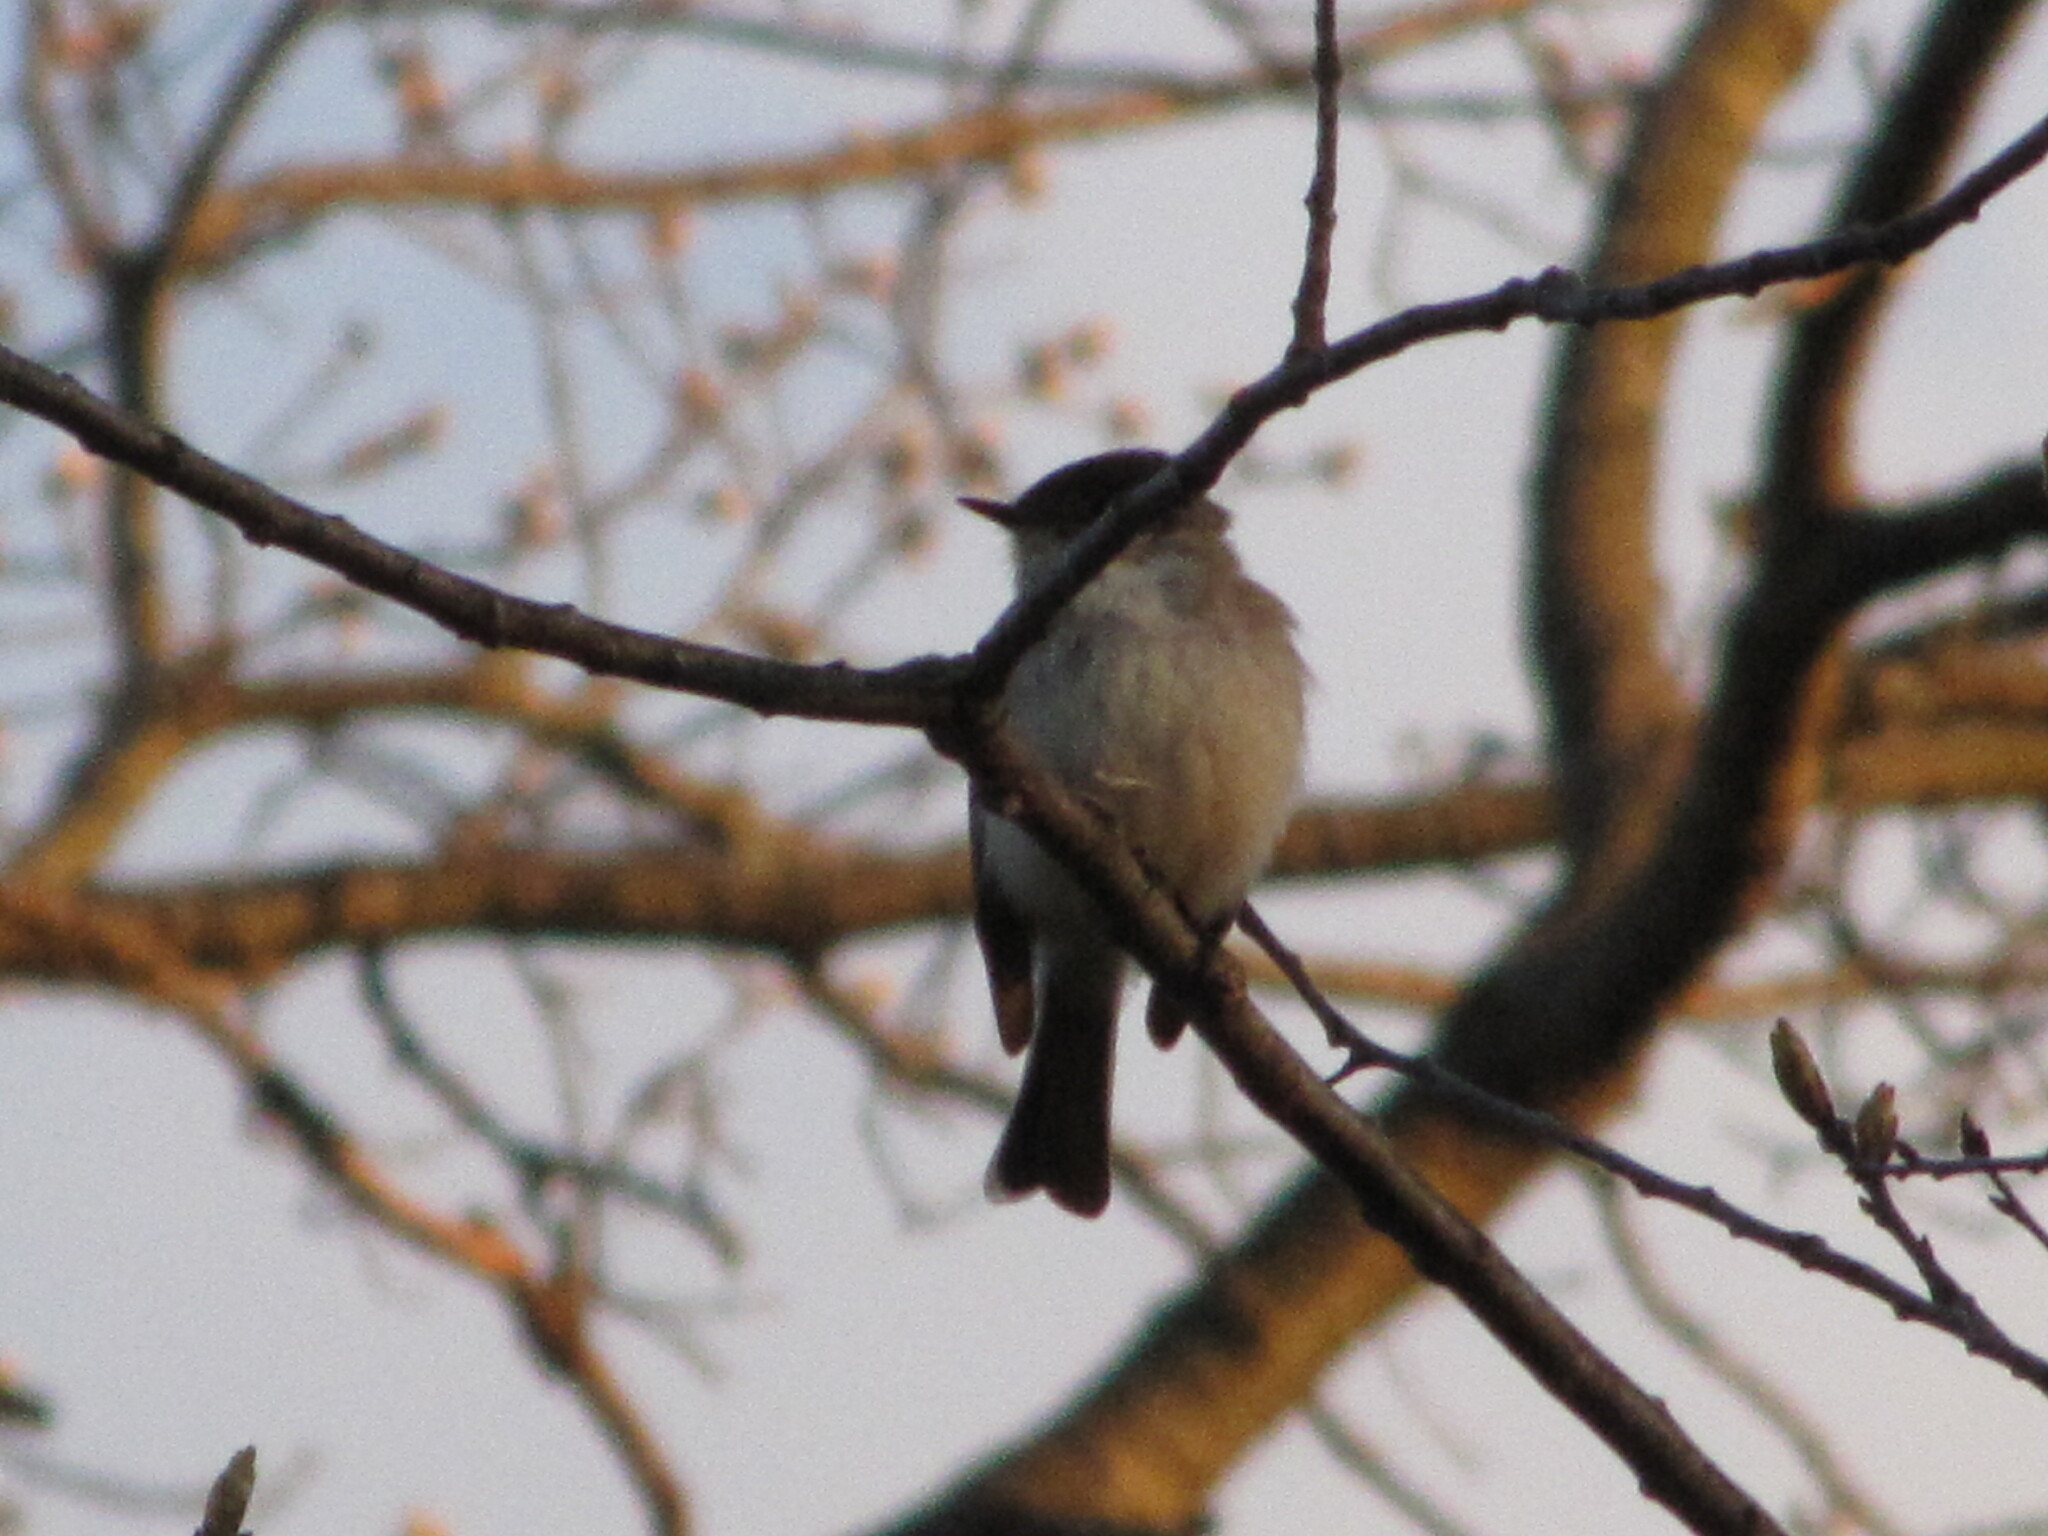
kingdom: Animalia
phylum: Chordata
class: Aves
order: Passeriformes
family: Tyrannidae
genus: Sayornis
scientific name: Sayornis phoebe
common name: Eastern phoebe
